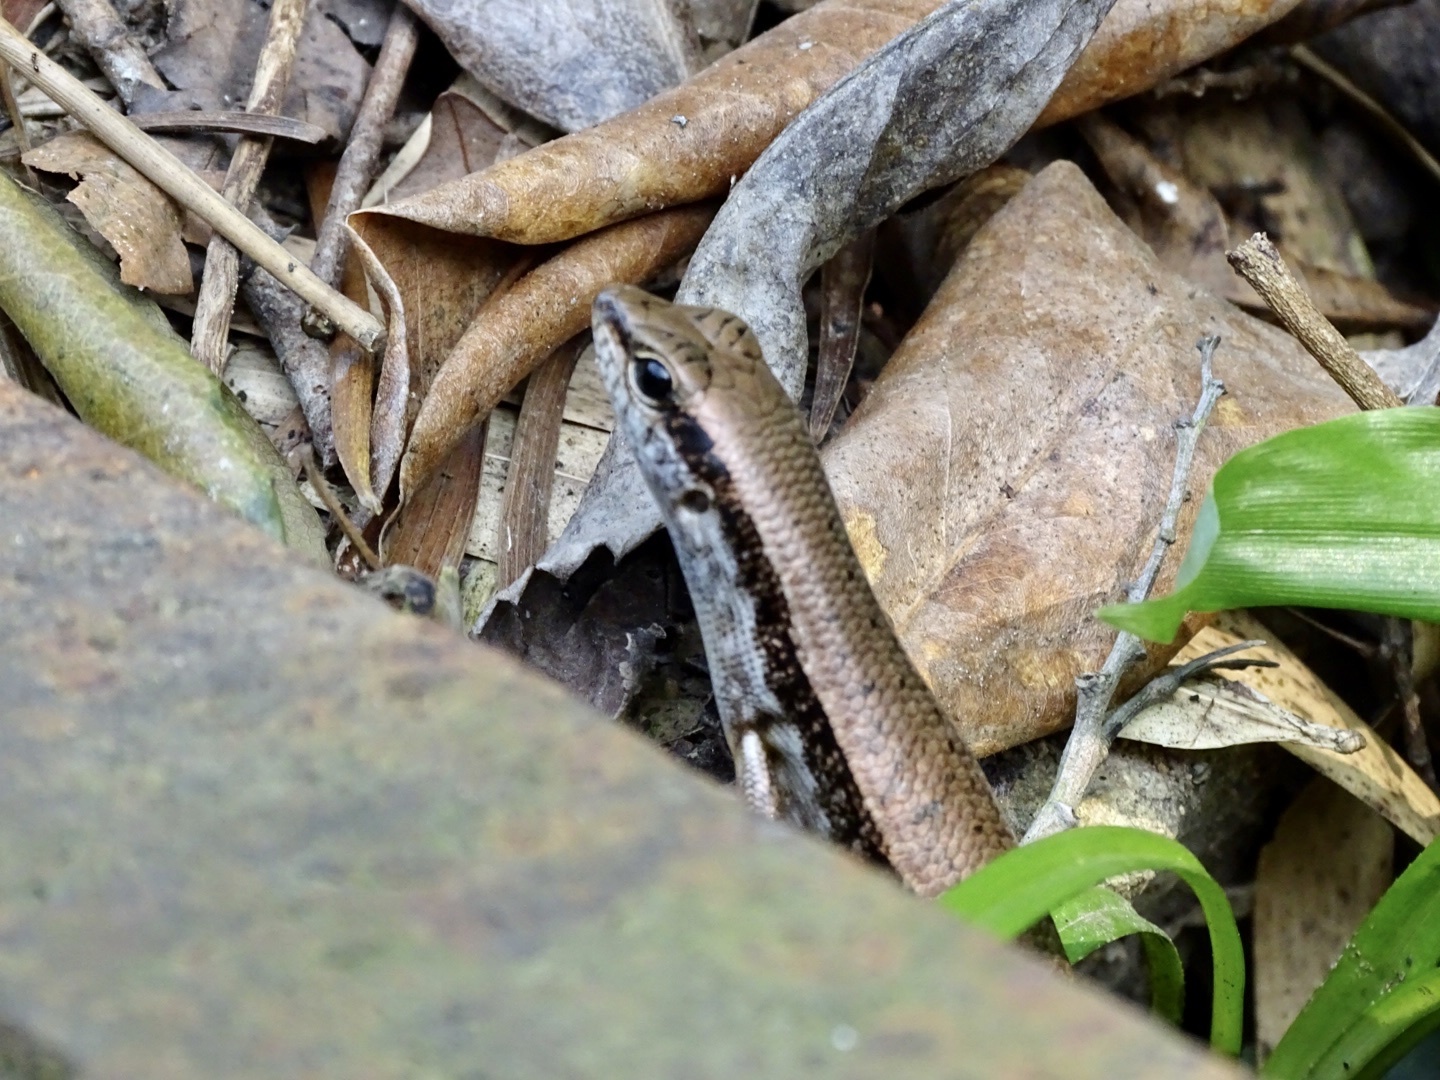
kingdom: Animalia
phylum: Chordata
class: Squamata
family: Scincidae
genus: Sphenomorphus
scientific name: Sphenomorphus indicus
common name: Himalayan forest skink
